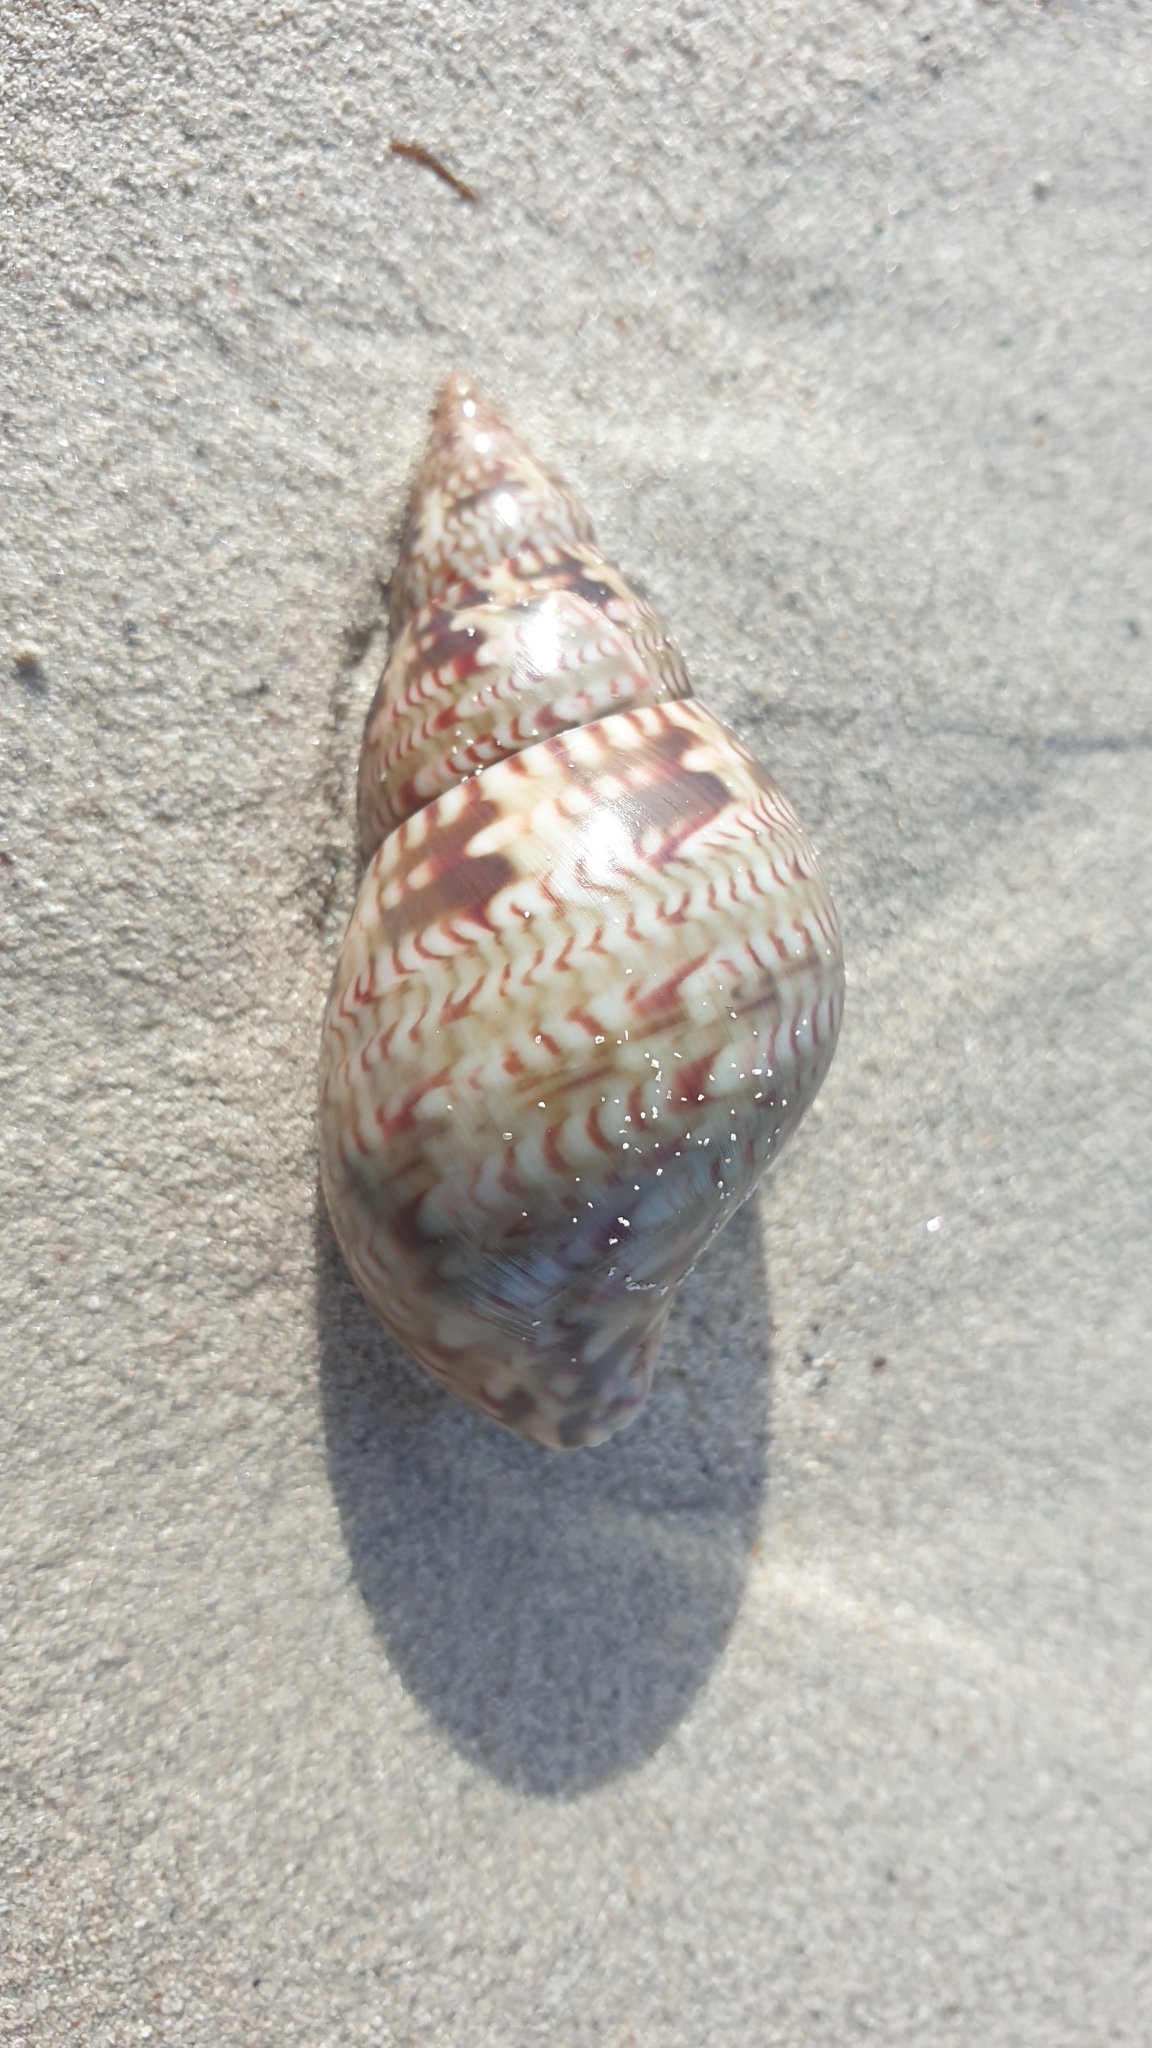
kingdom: Animalia
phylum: Mollusca
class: Gastropoda
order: Trochida
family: Phasianellidae
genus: Phasianella
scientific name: Phasianella australis
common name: Painted lady
